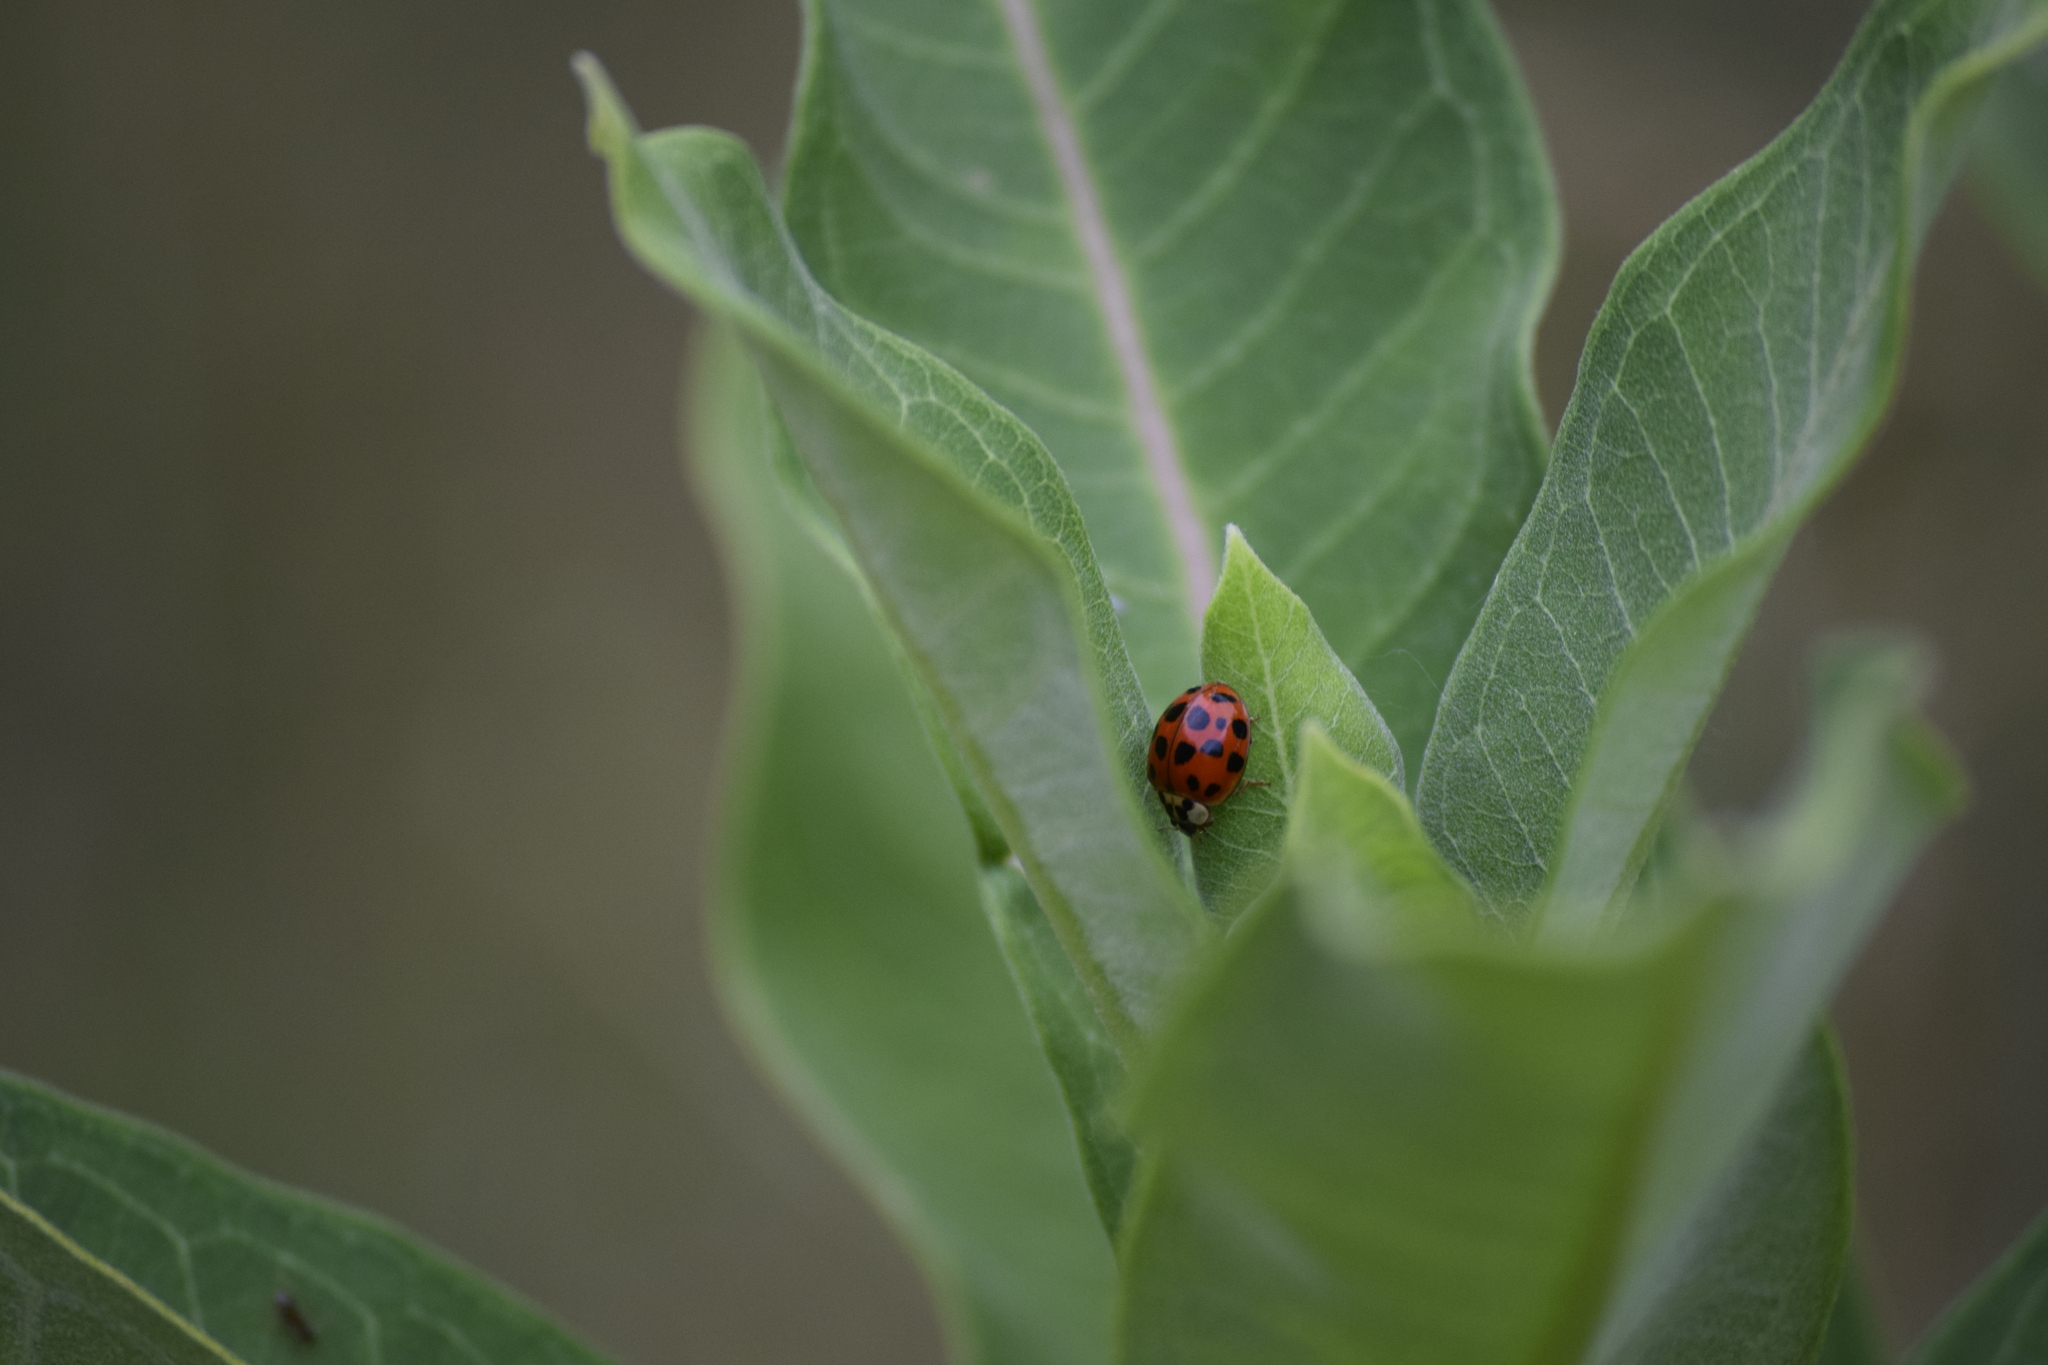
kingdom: Animalia
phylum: Arthropoda
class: Insecta
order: Coleoptera
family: Coccinellidae
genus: Harmonia
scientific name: Harmonia axyridis
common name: Harlequin ladybird
